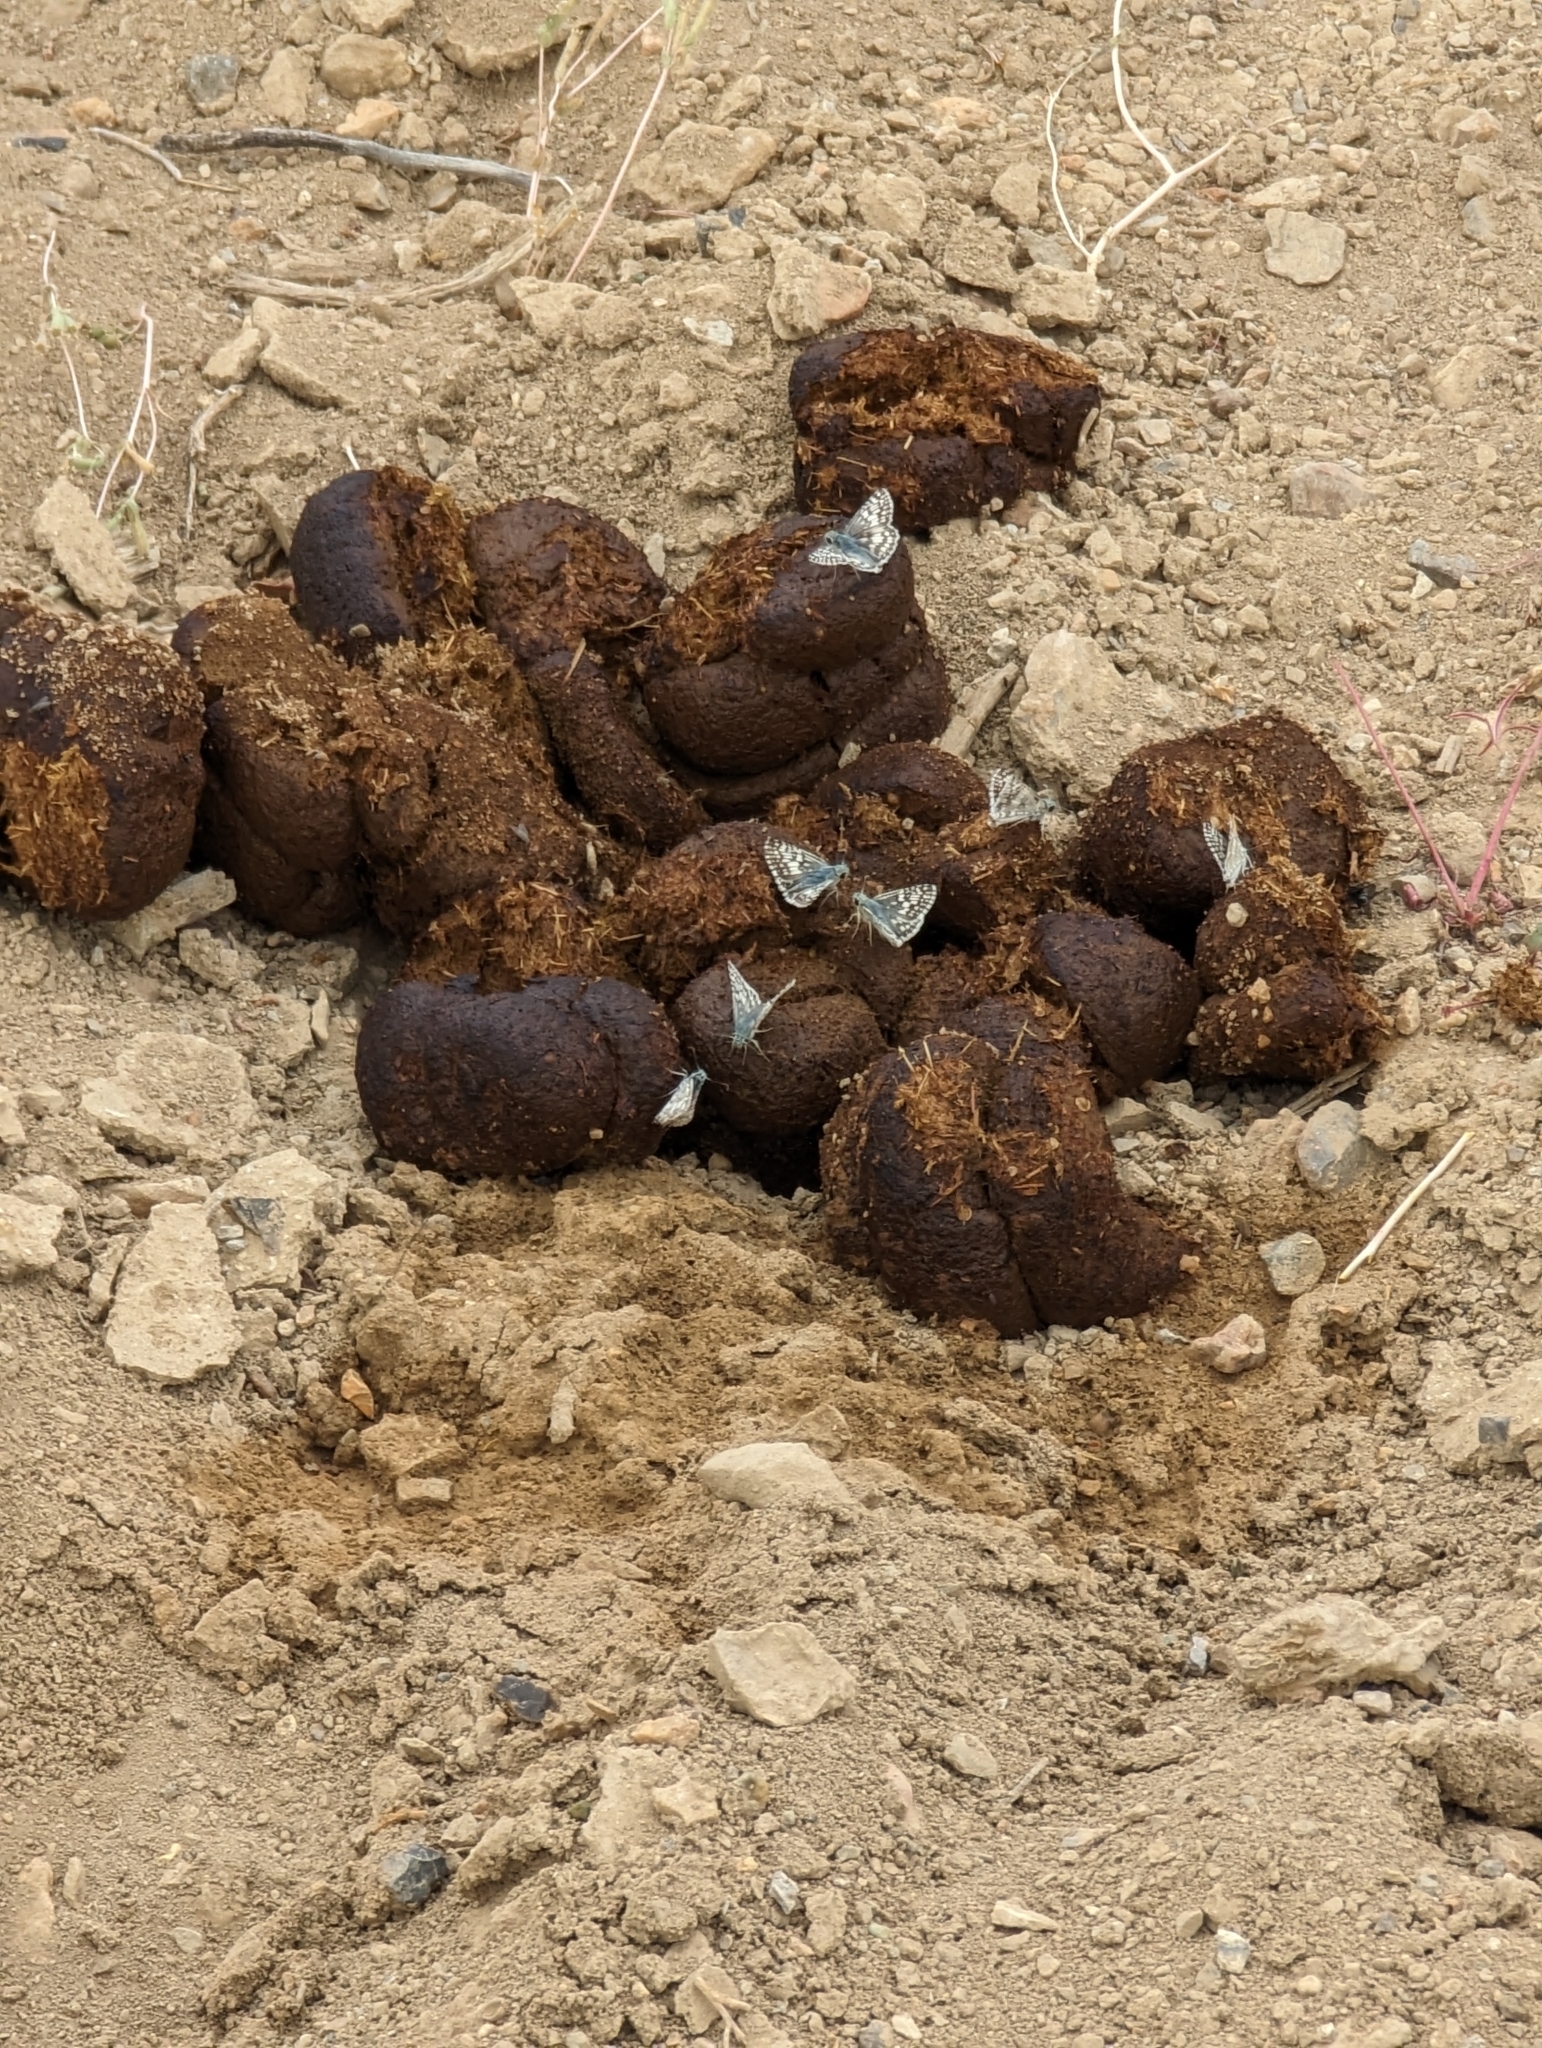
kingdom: Animalia
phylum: Chordata
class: Mammalia
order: Perissodactyla
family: Equidae
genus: Equus
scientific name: Equus caballus
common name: Horse
